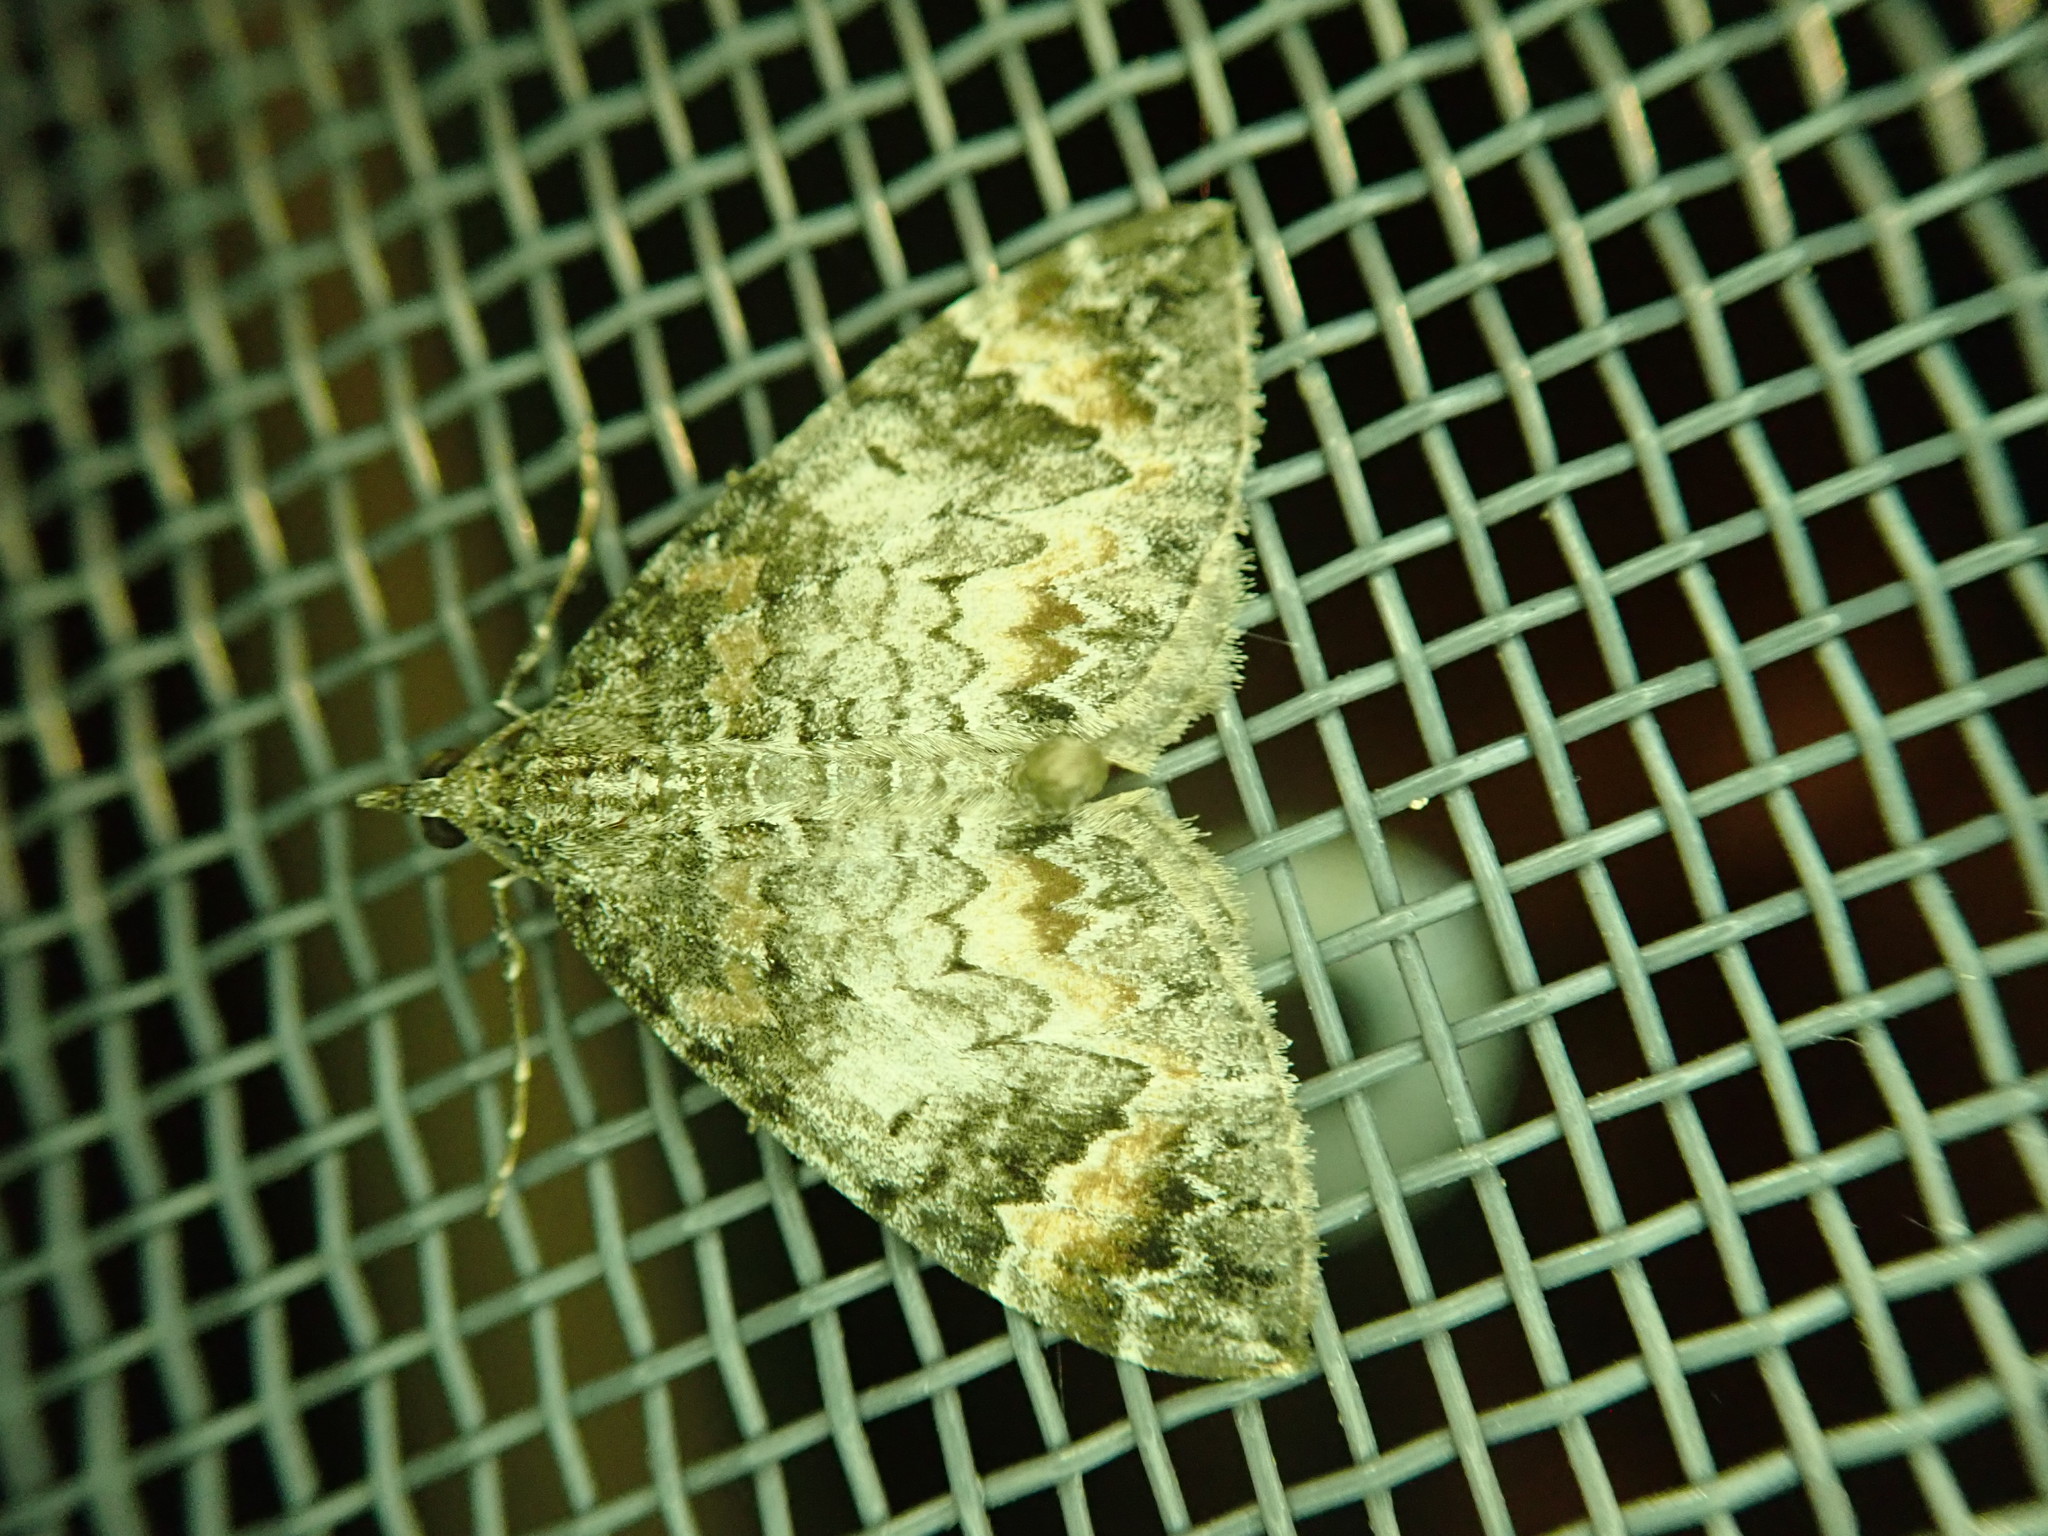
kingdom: Animalia
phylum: Arthropoda
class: Insecta
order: Lepidoptera
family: Geometridae
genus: Dysstroma
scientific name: Dysstroma citrata
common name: Dark marbled carpet
